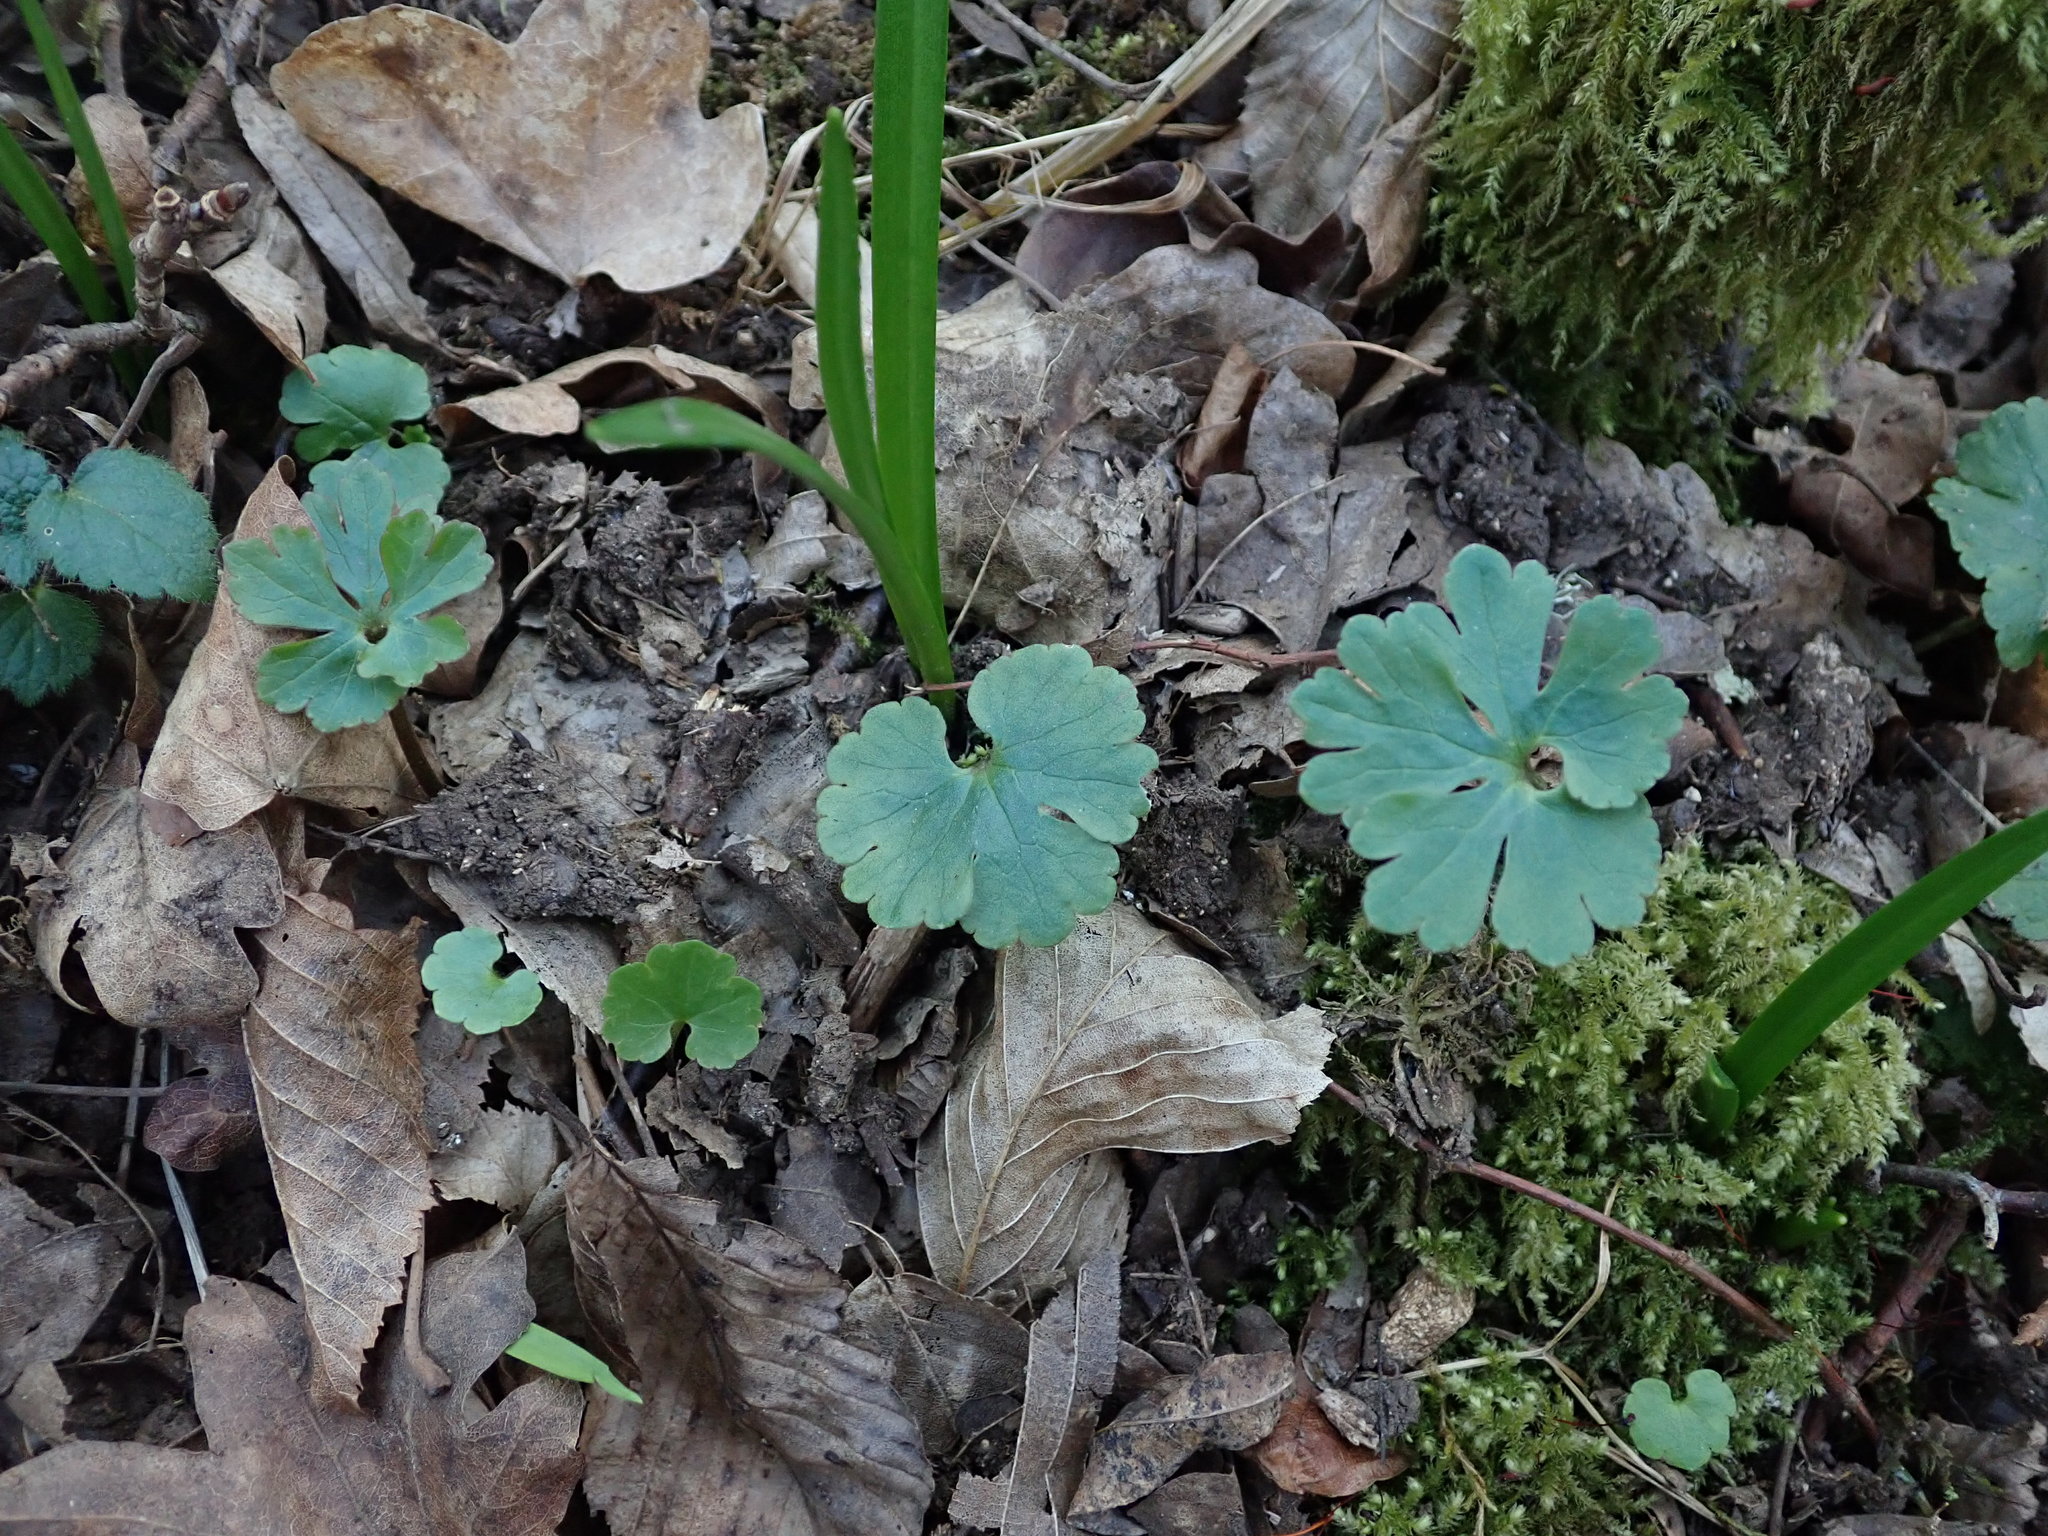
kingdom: Plantae
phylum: Tracheophyta
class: Magnoliopsida
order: Ranunculales
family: Ranunculaceae
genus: Ranunculus
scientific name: Ranunculus auricomus
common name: Goldilocks buttercup
